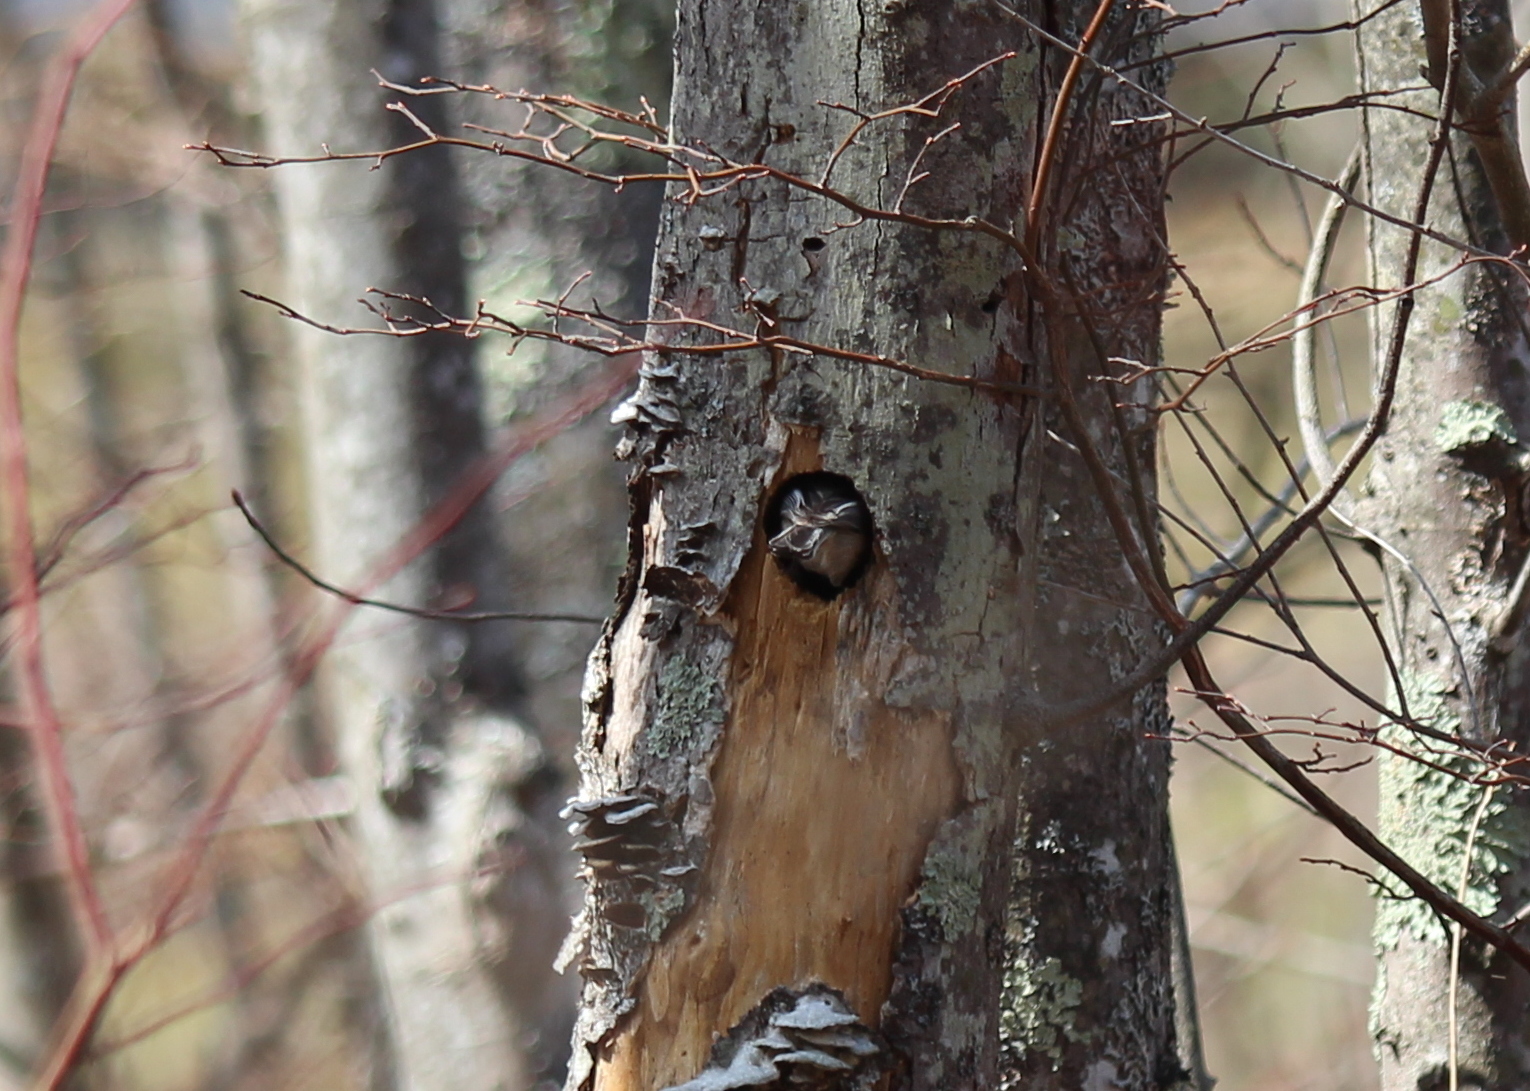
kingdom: Animalia
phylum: Chordata
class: Aves
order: Passeriformes
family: Paridae
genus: Poecile
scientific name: Poecile atricapillus
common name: Black-capped chickadee
